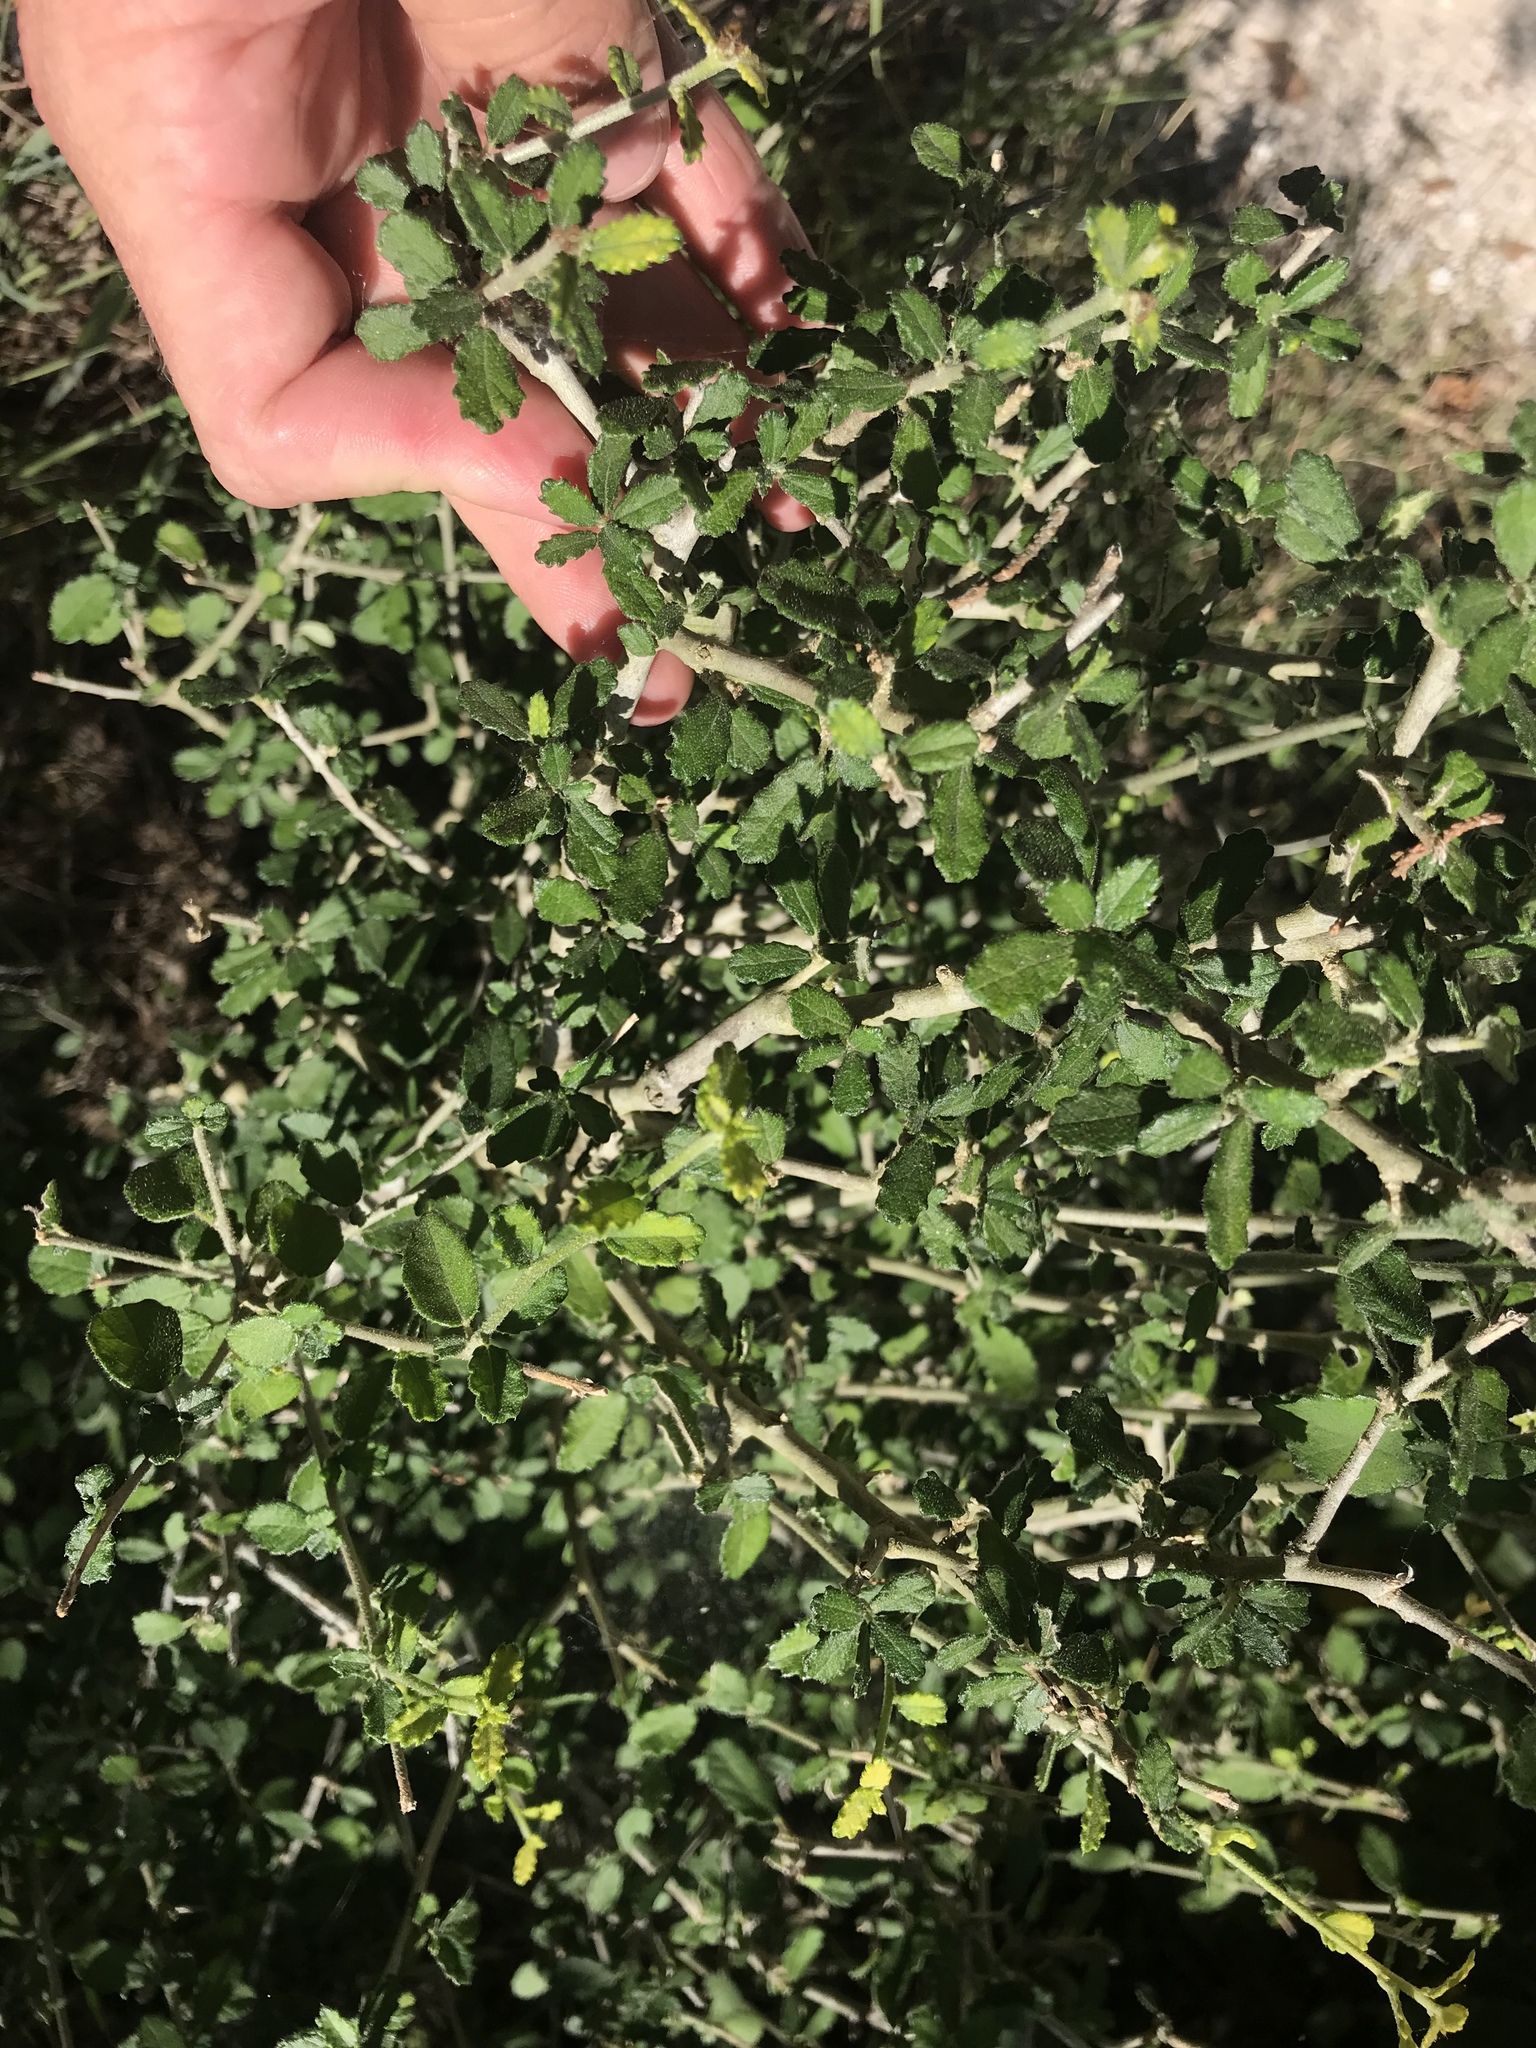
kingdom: Plantae
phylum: Tracheophyta
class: Magnoliopsida
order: Malpighiales
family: Euphorbiaceae
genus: Bernardia
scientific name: Bernardia myricifolia
